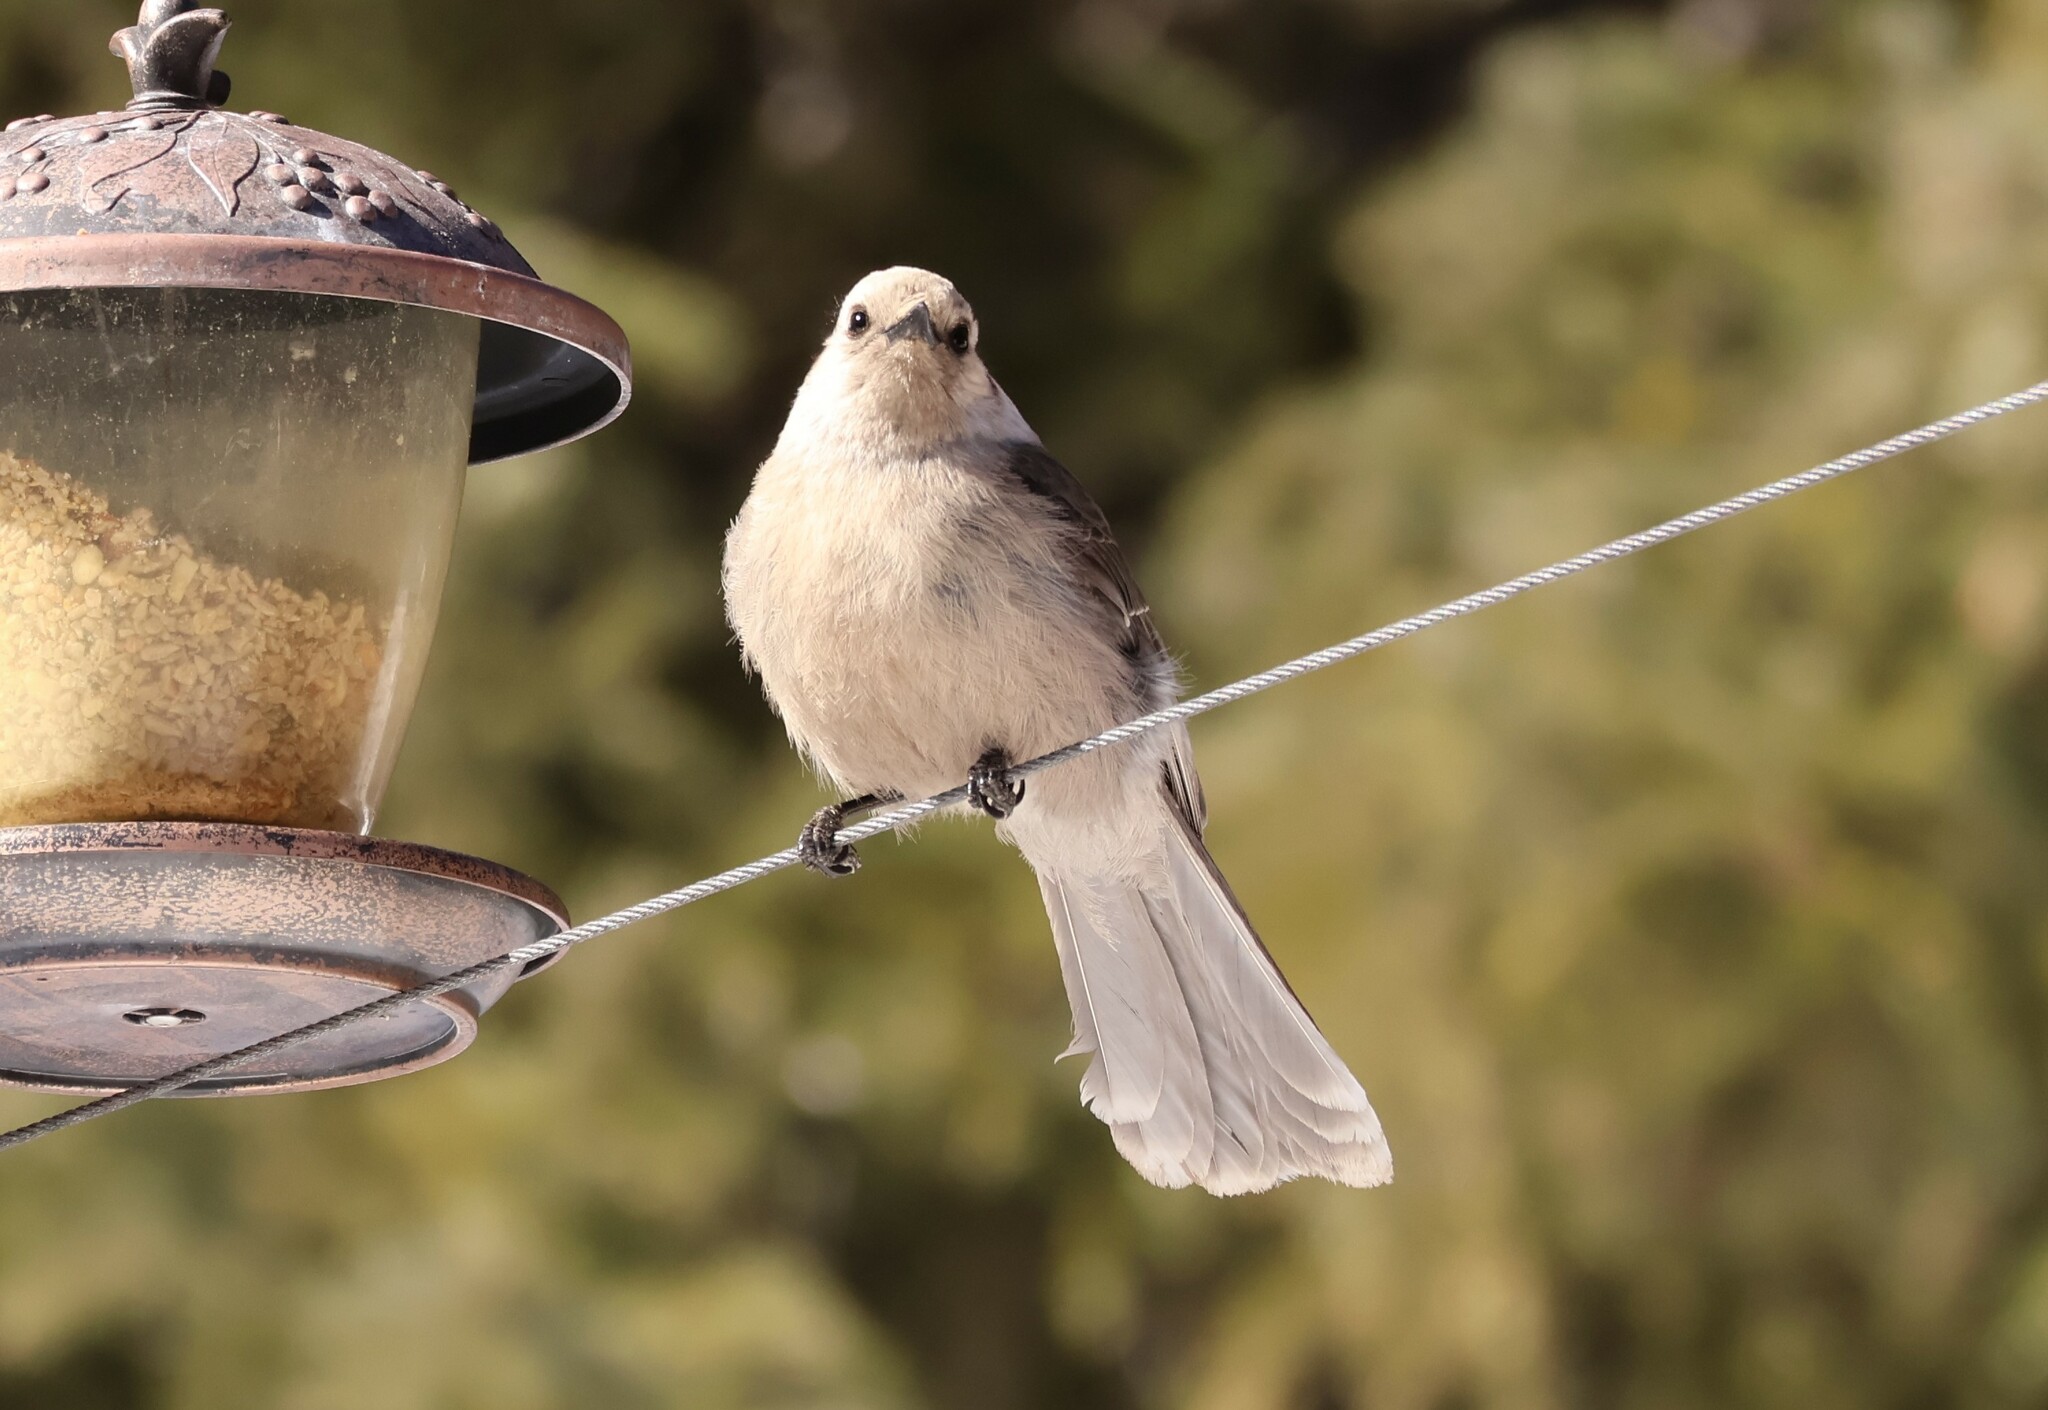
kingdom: Animalia
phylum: Chordata
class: Aves
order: Passeriformes
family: Corvidae
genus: Perisoreus
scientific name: Perisoreus canadensis
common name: Gray jay
